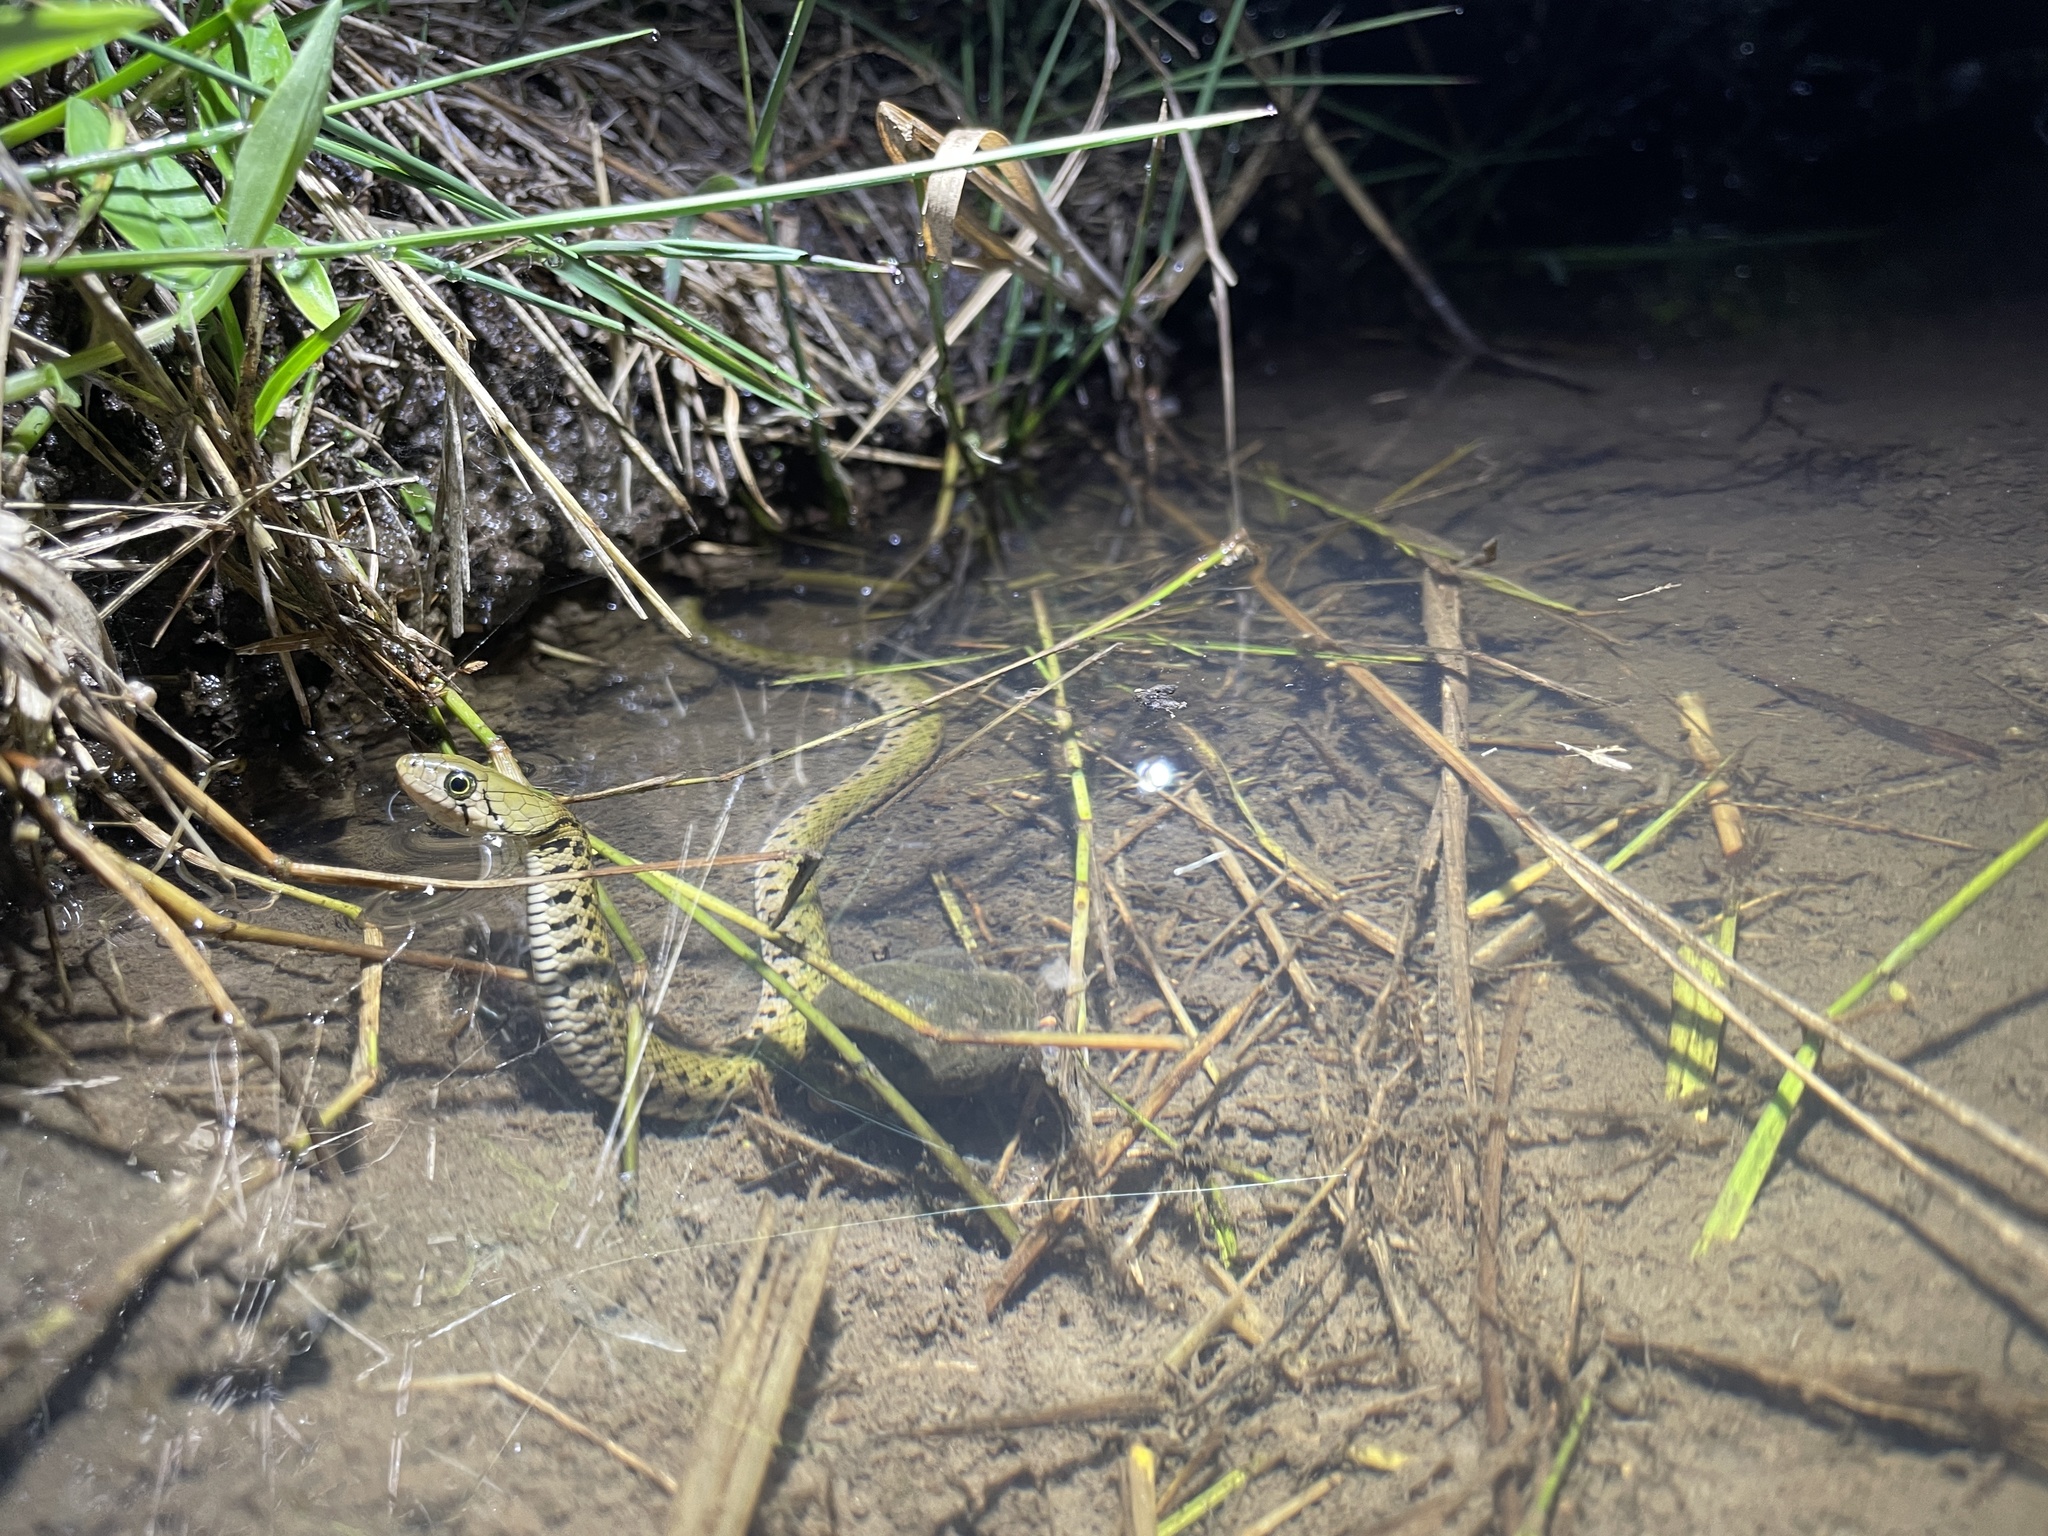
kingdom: Animalia
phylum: Chordata
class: Squamata
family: Colubridae
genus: Fowlea
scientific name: Fowlea flavipunctatus
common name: Yellow-spotted keelback
